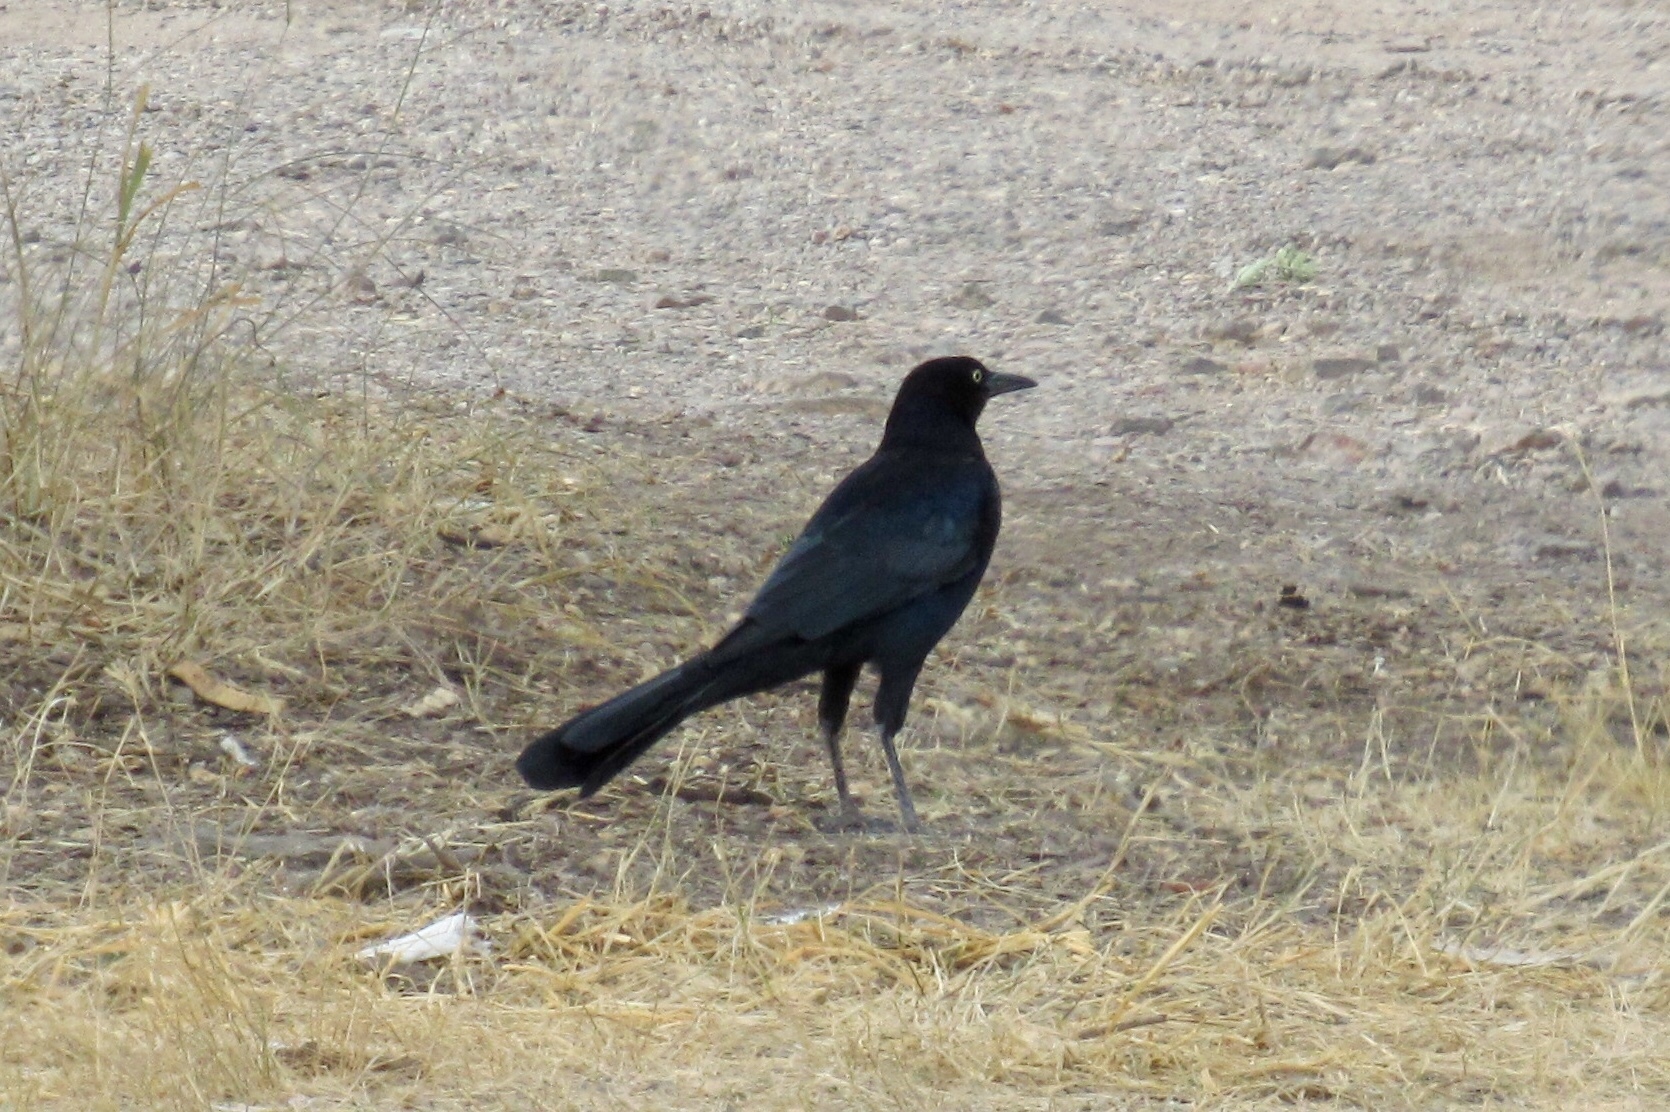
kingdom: Animalia
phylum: Chordata
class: Aves
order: Passeriformes
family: Icteridae
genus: Quiscalus
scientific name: Quiscalus mexicanus
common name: Great-tailed grackle
